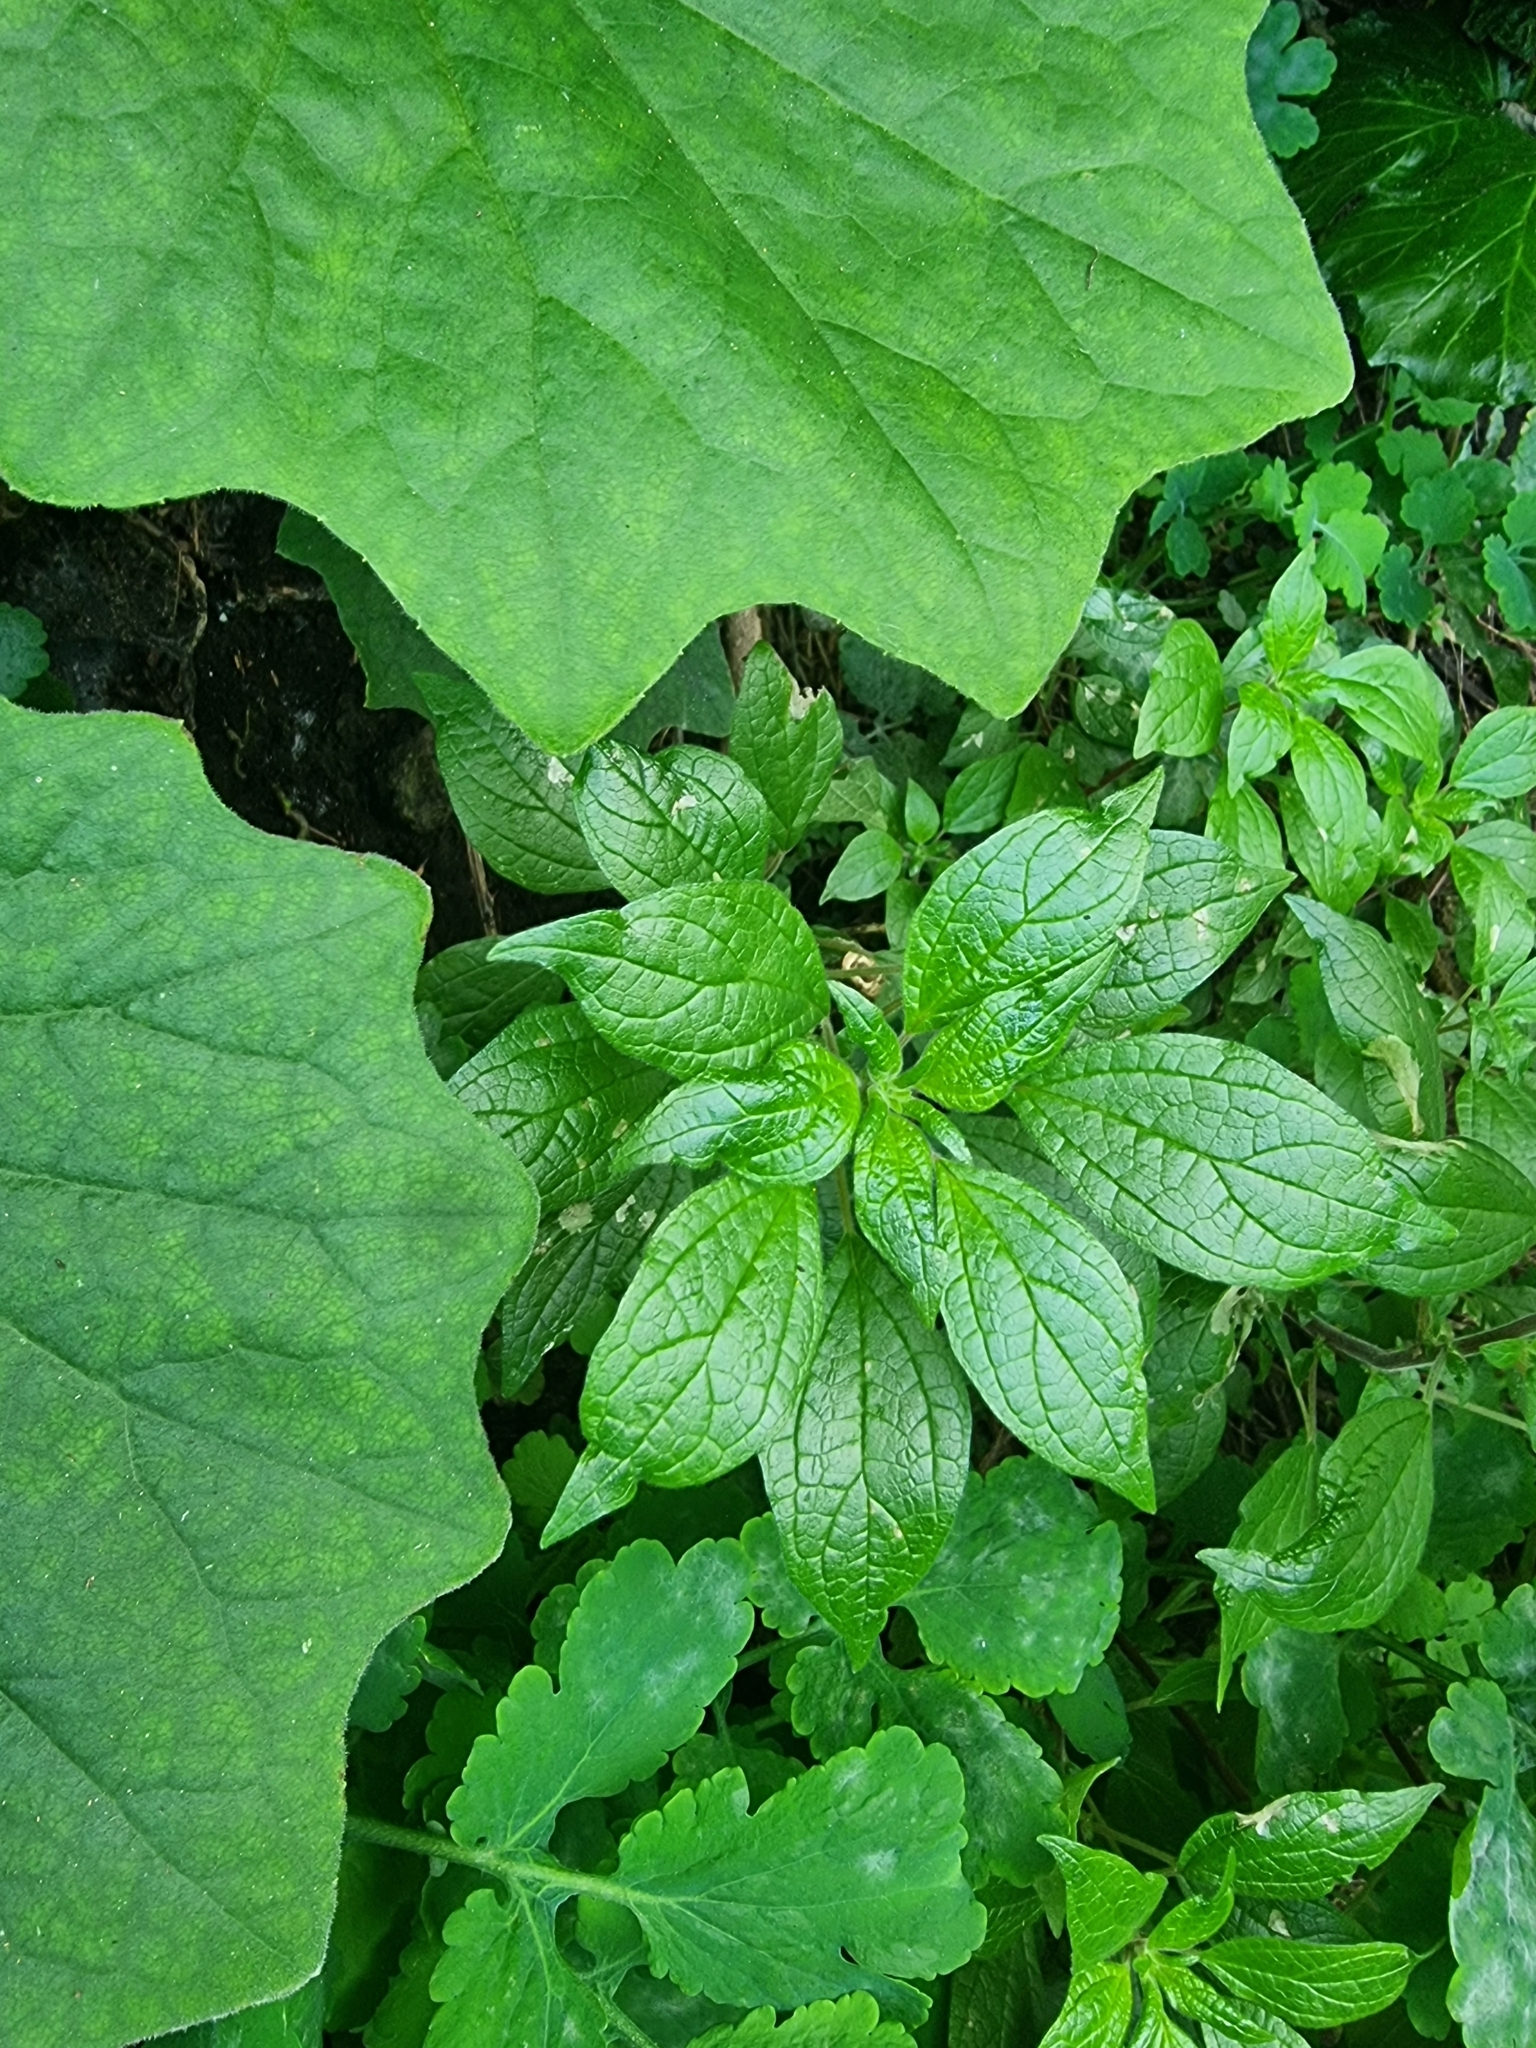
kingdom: Plantae
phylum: Tracheophyta
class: Magnoliopsida
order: Rosales
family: Urticaceae
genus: Parietaria
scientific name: Parietaria judaica
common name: Pellitory-of-the-wall
